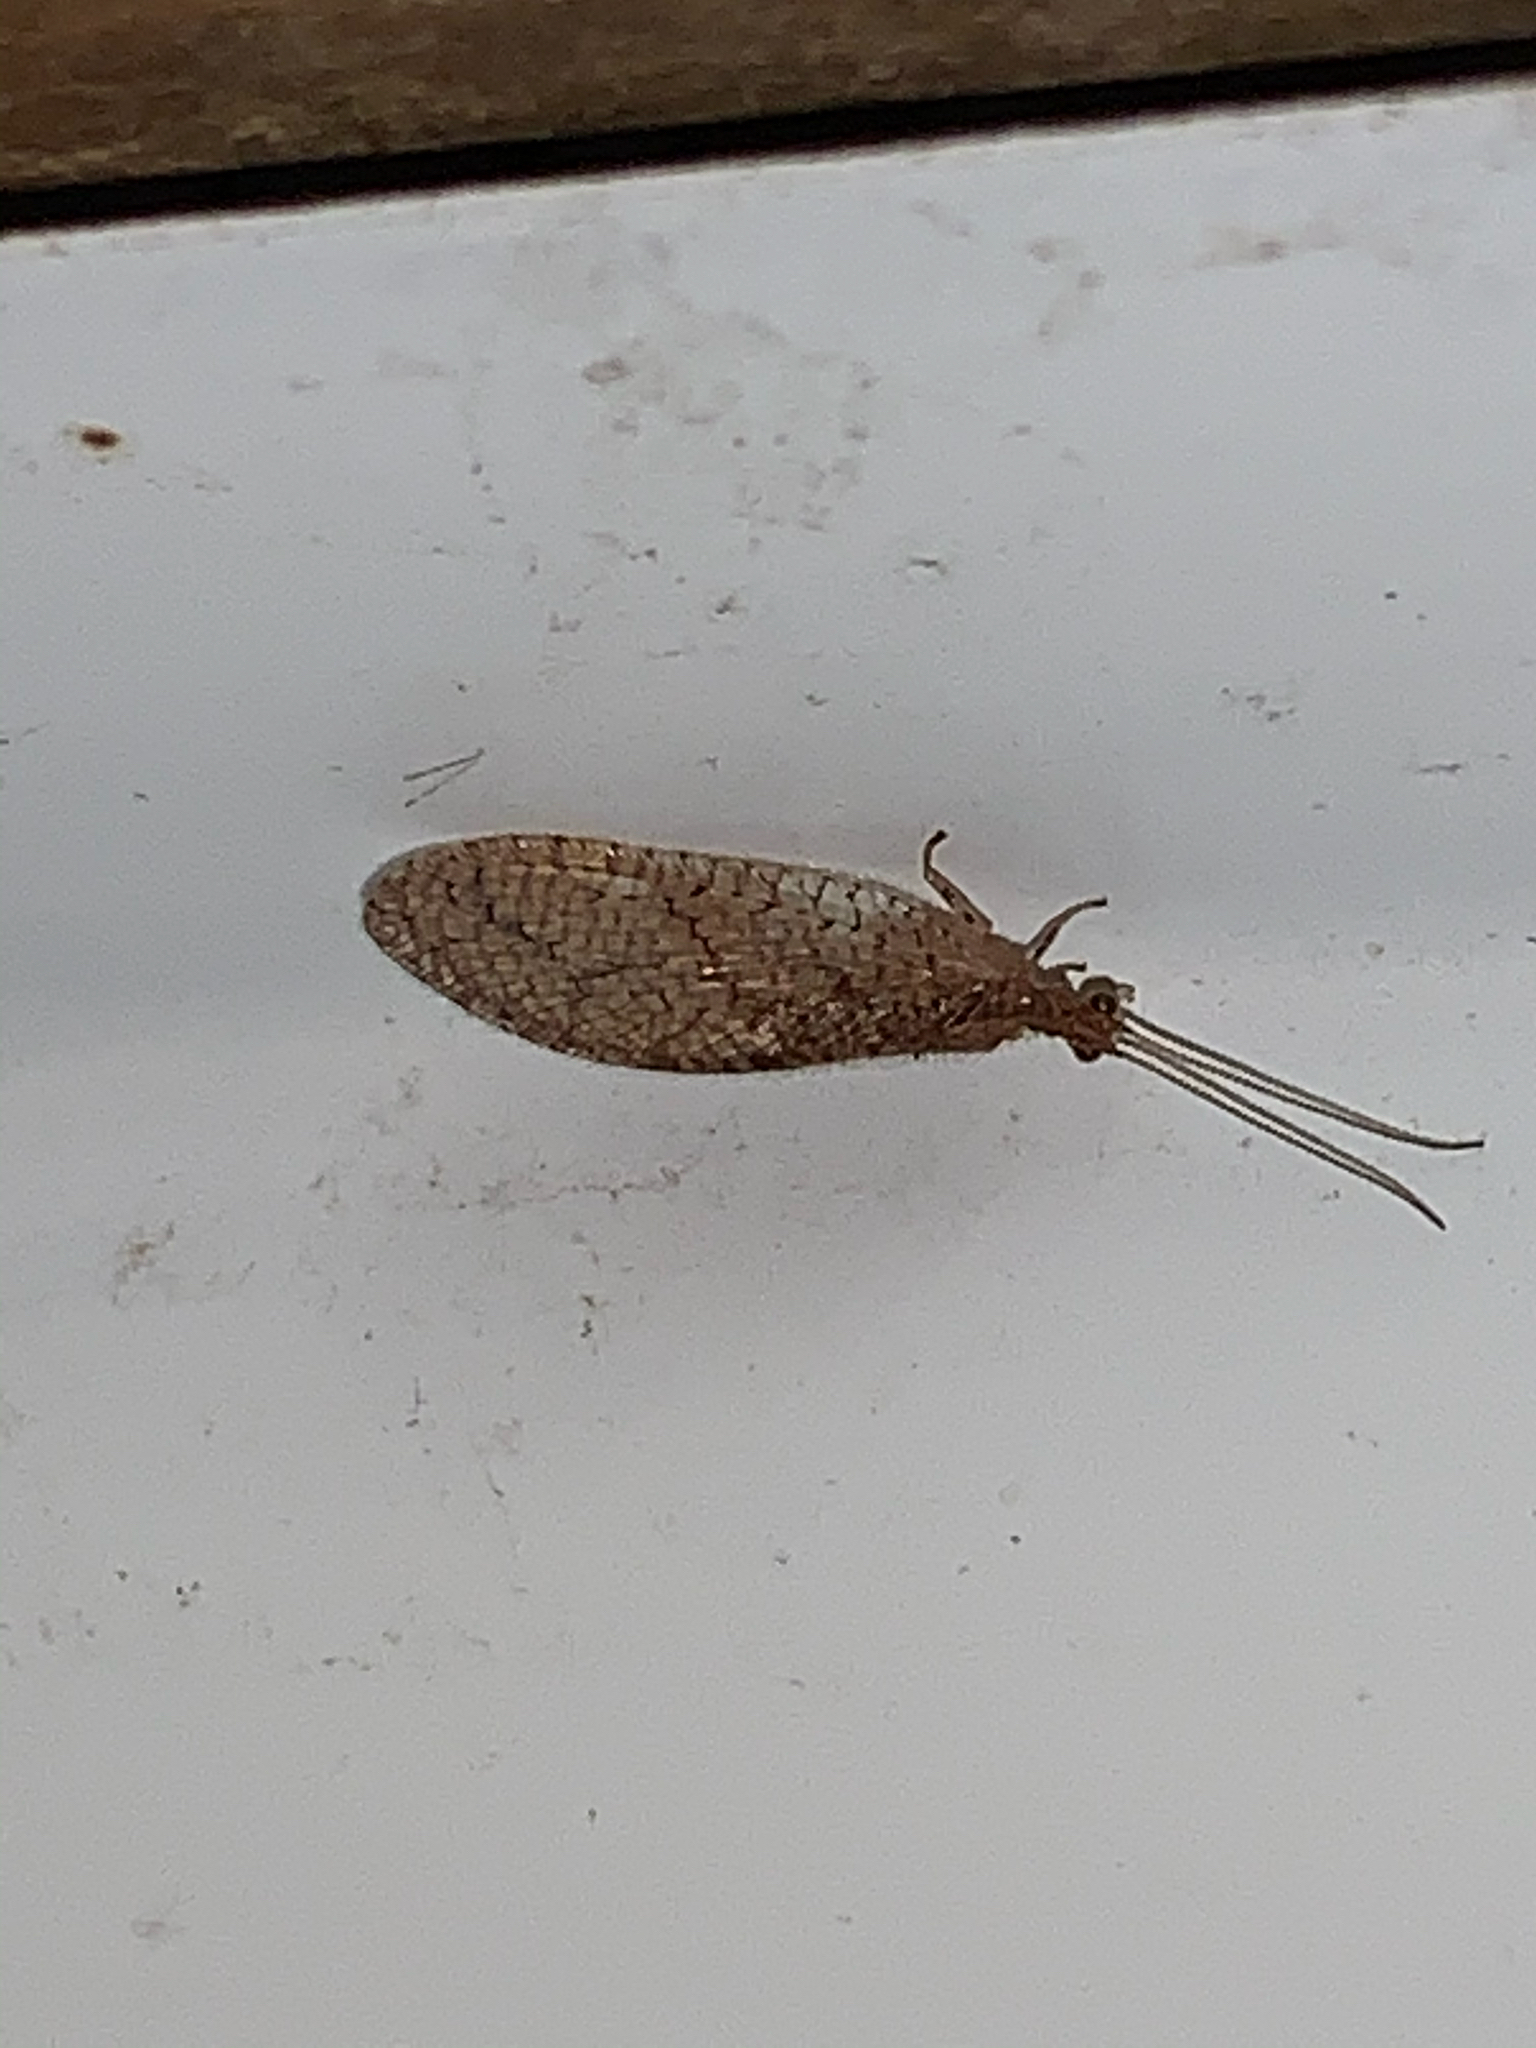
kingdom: Animalia
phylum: Arthropoda
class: Insecta
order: Neuroptera
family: Hemerobiidae
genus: Micromus
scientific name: Micromus posticus
